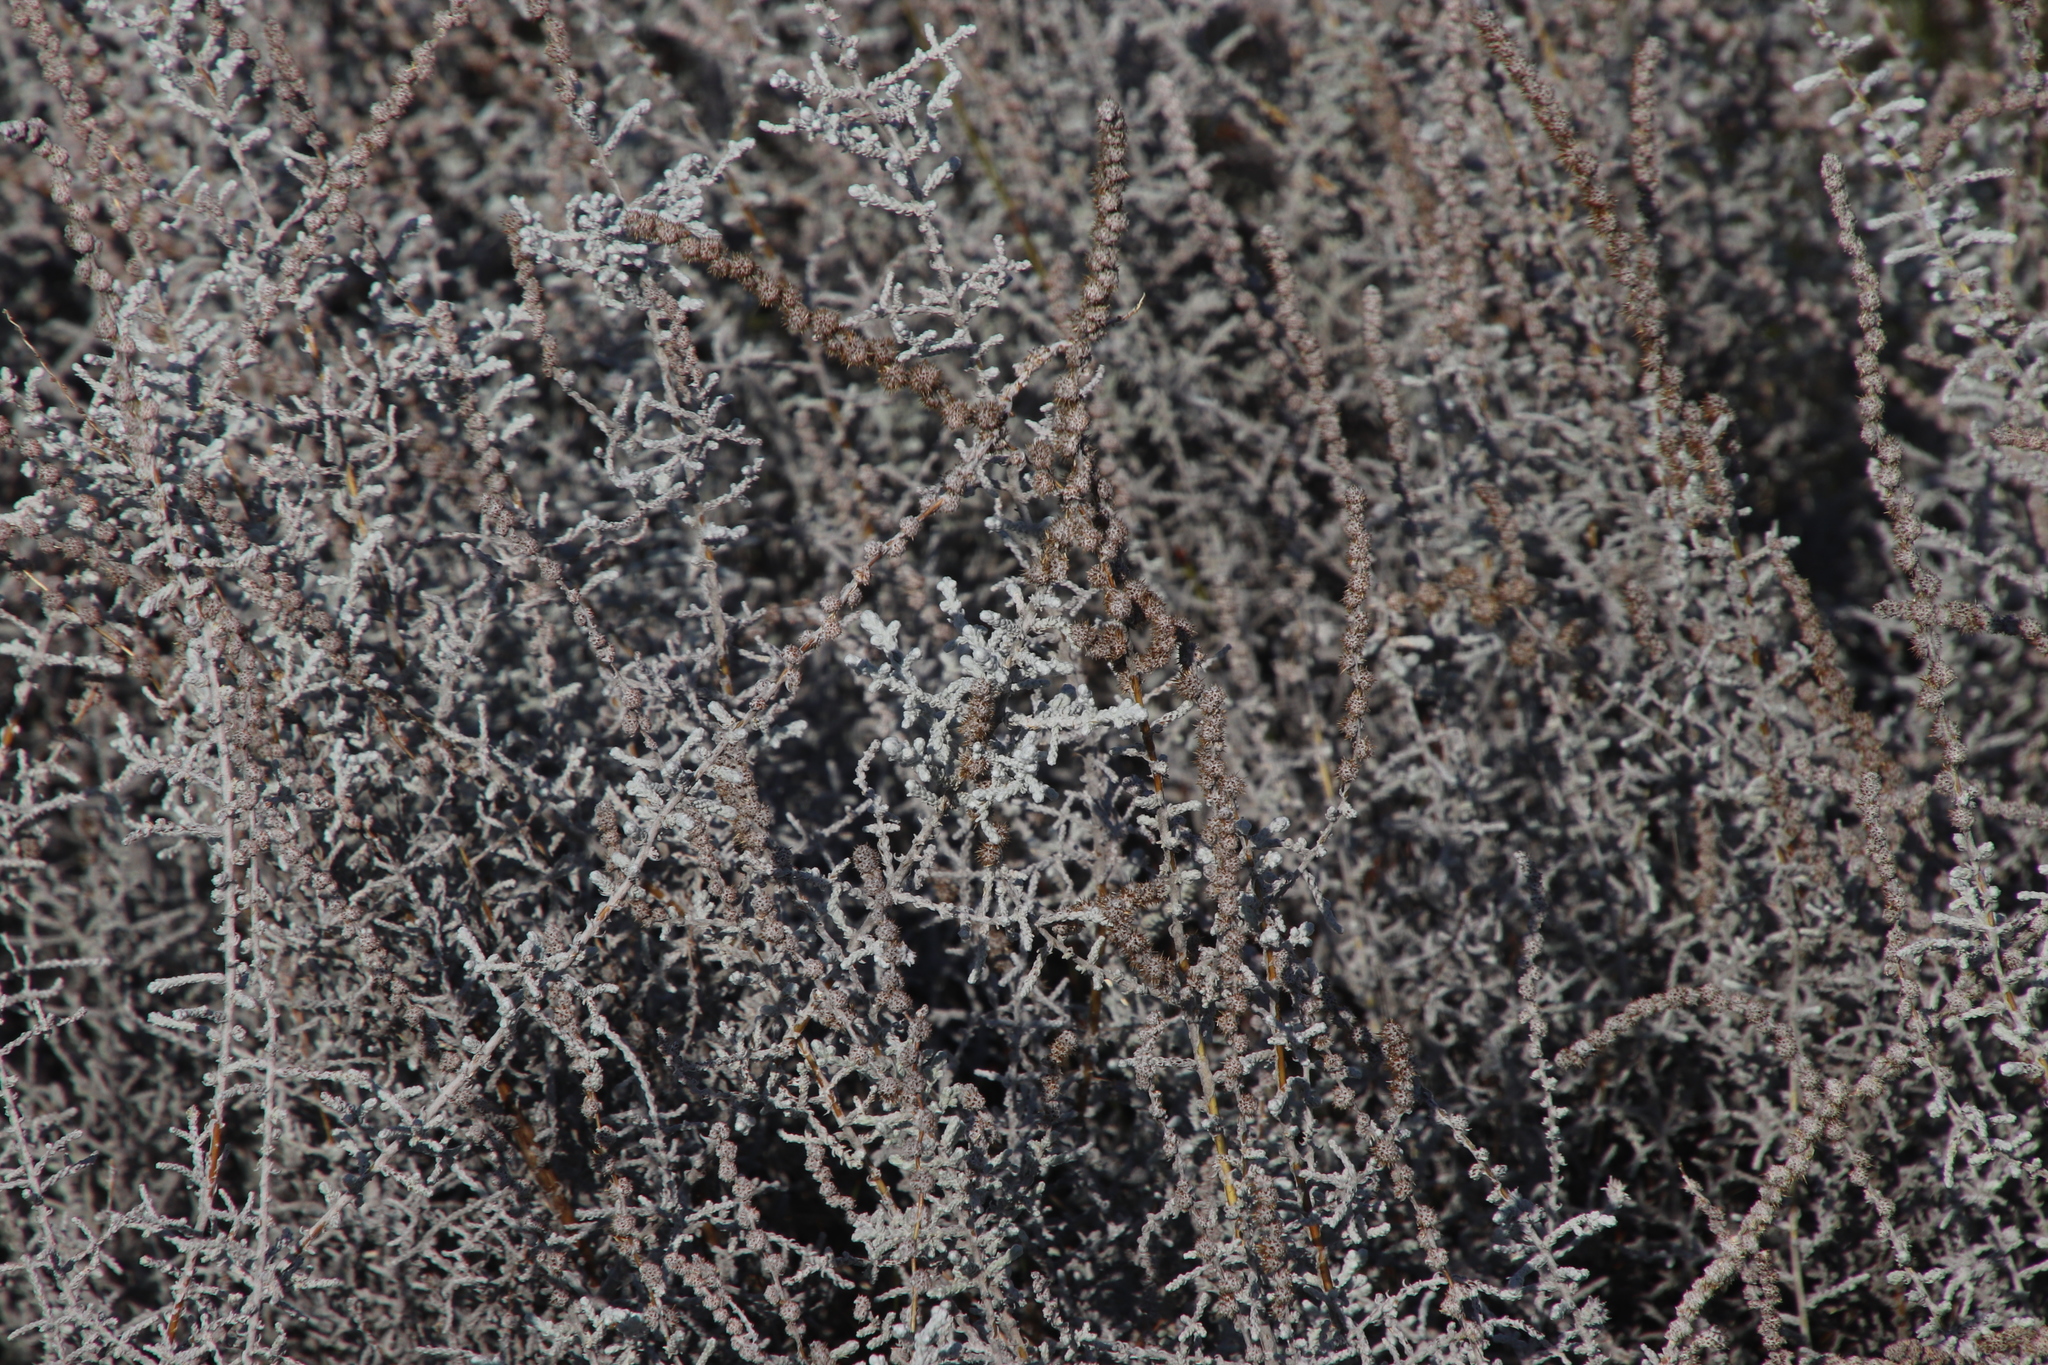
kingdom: Plantae
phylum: Tracheophyta
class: Magnoliopsida
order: Asterales
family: Asteraceae
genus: Seriphium
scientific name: Seriphium plumosum
